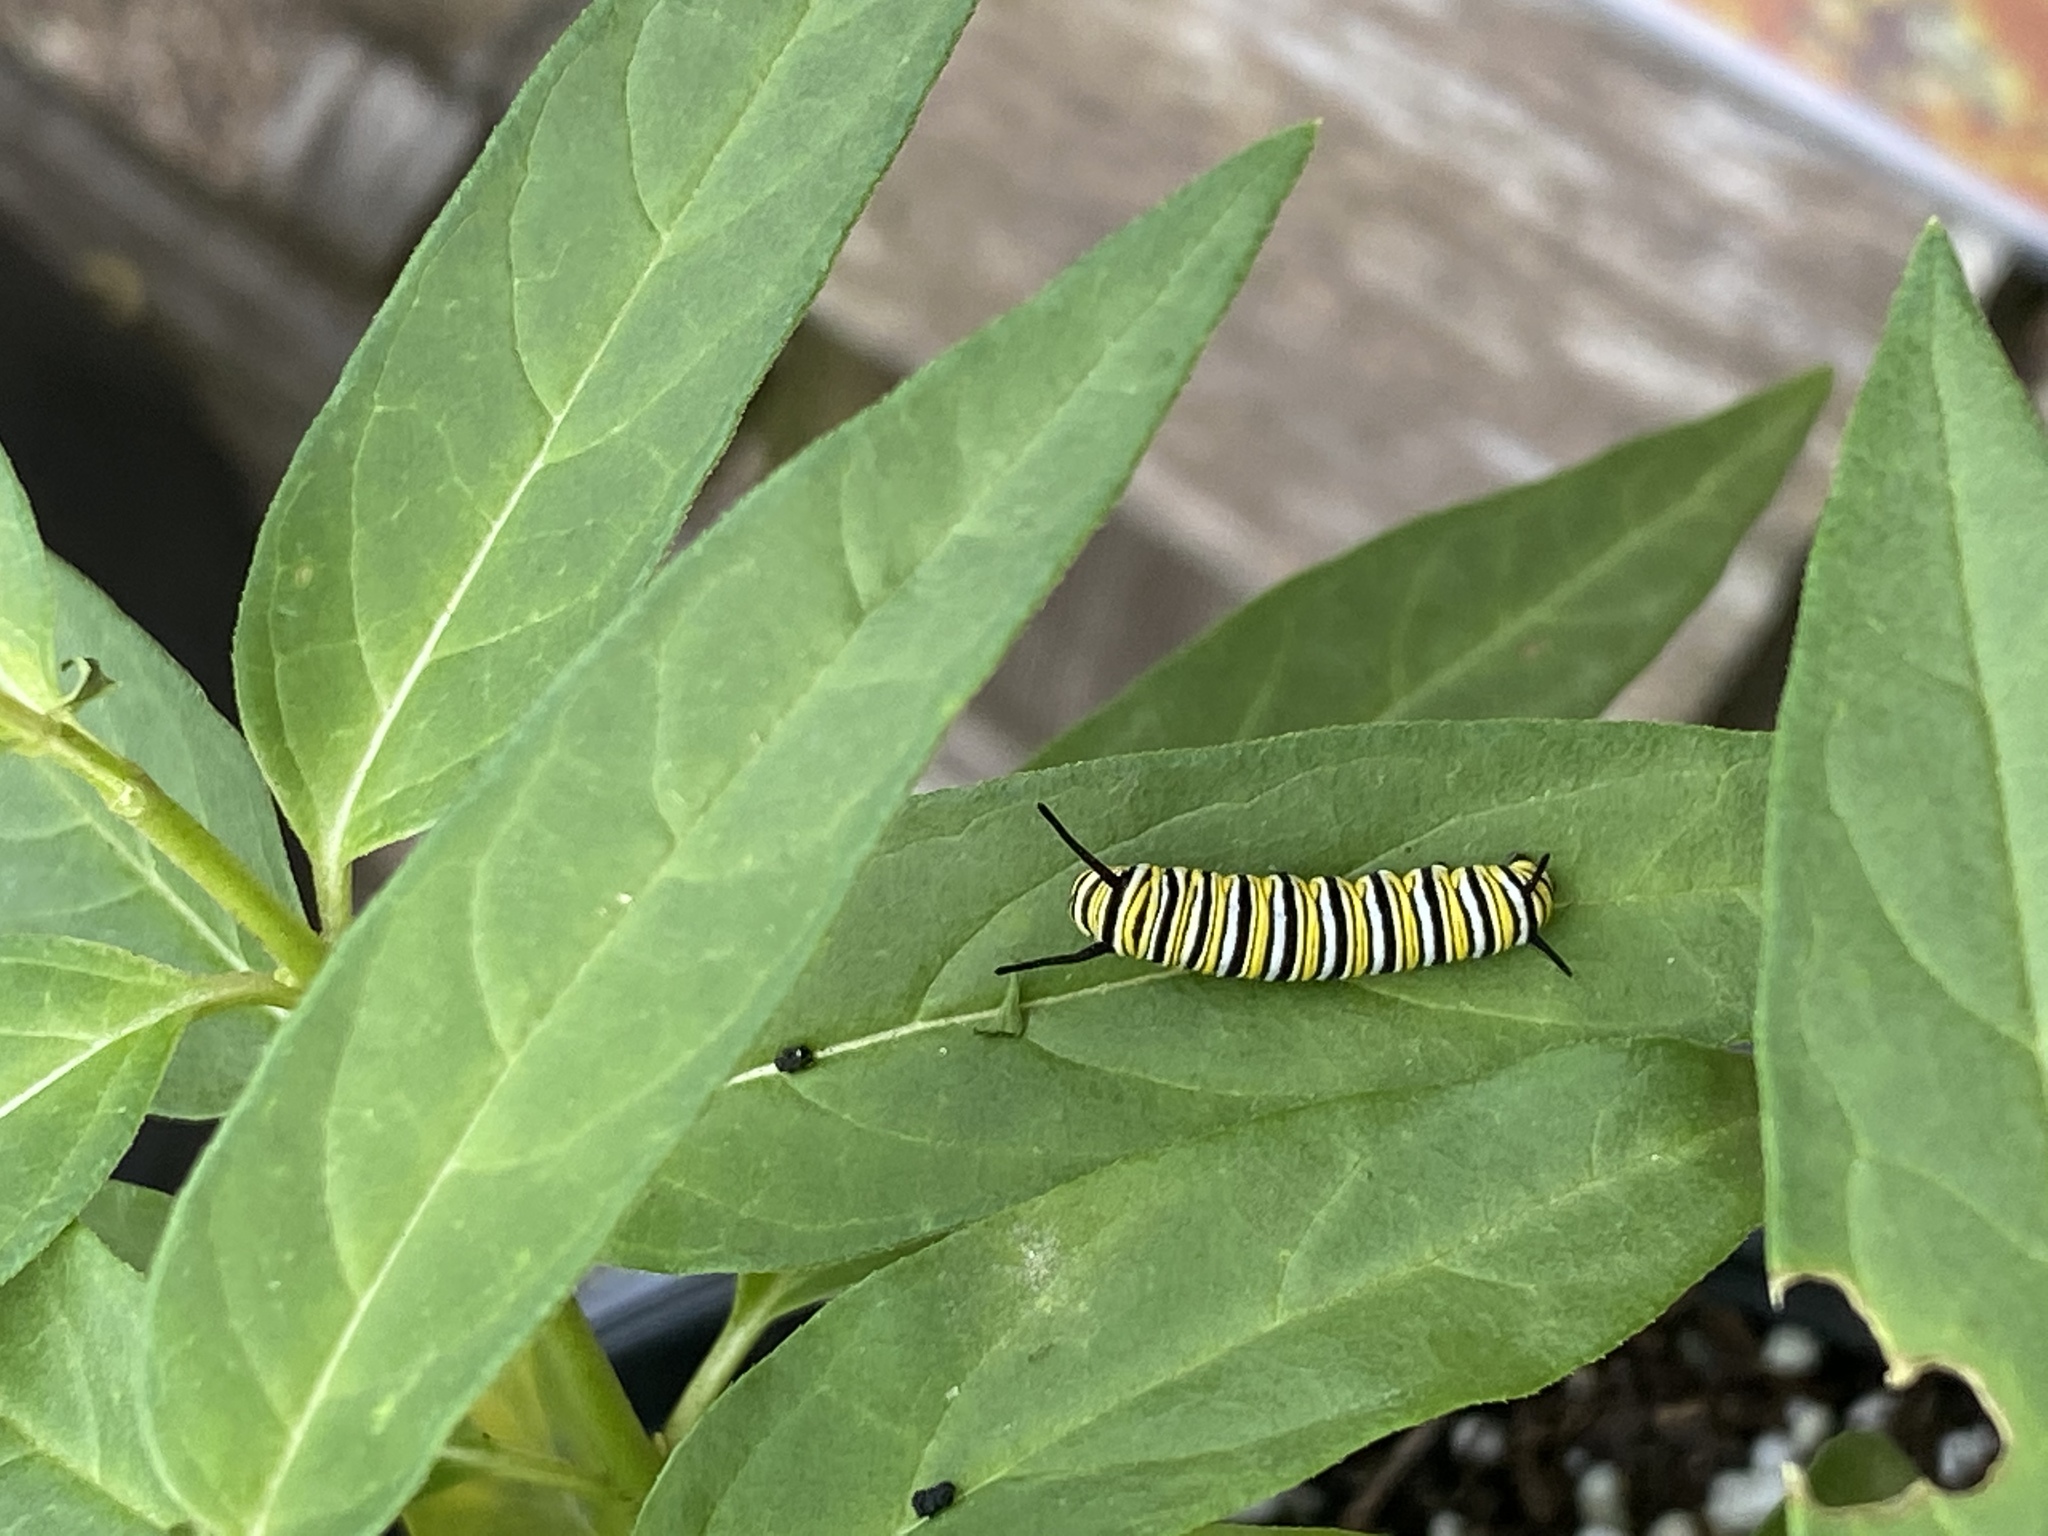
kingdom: Animalia
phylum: Arthropoda
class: Insecta
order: Lepidoptera
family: Nymphalidae
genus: Danaus
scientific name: Danaus plexippus
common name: Monarch
